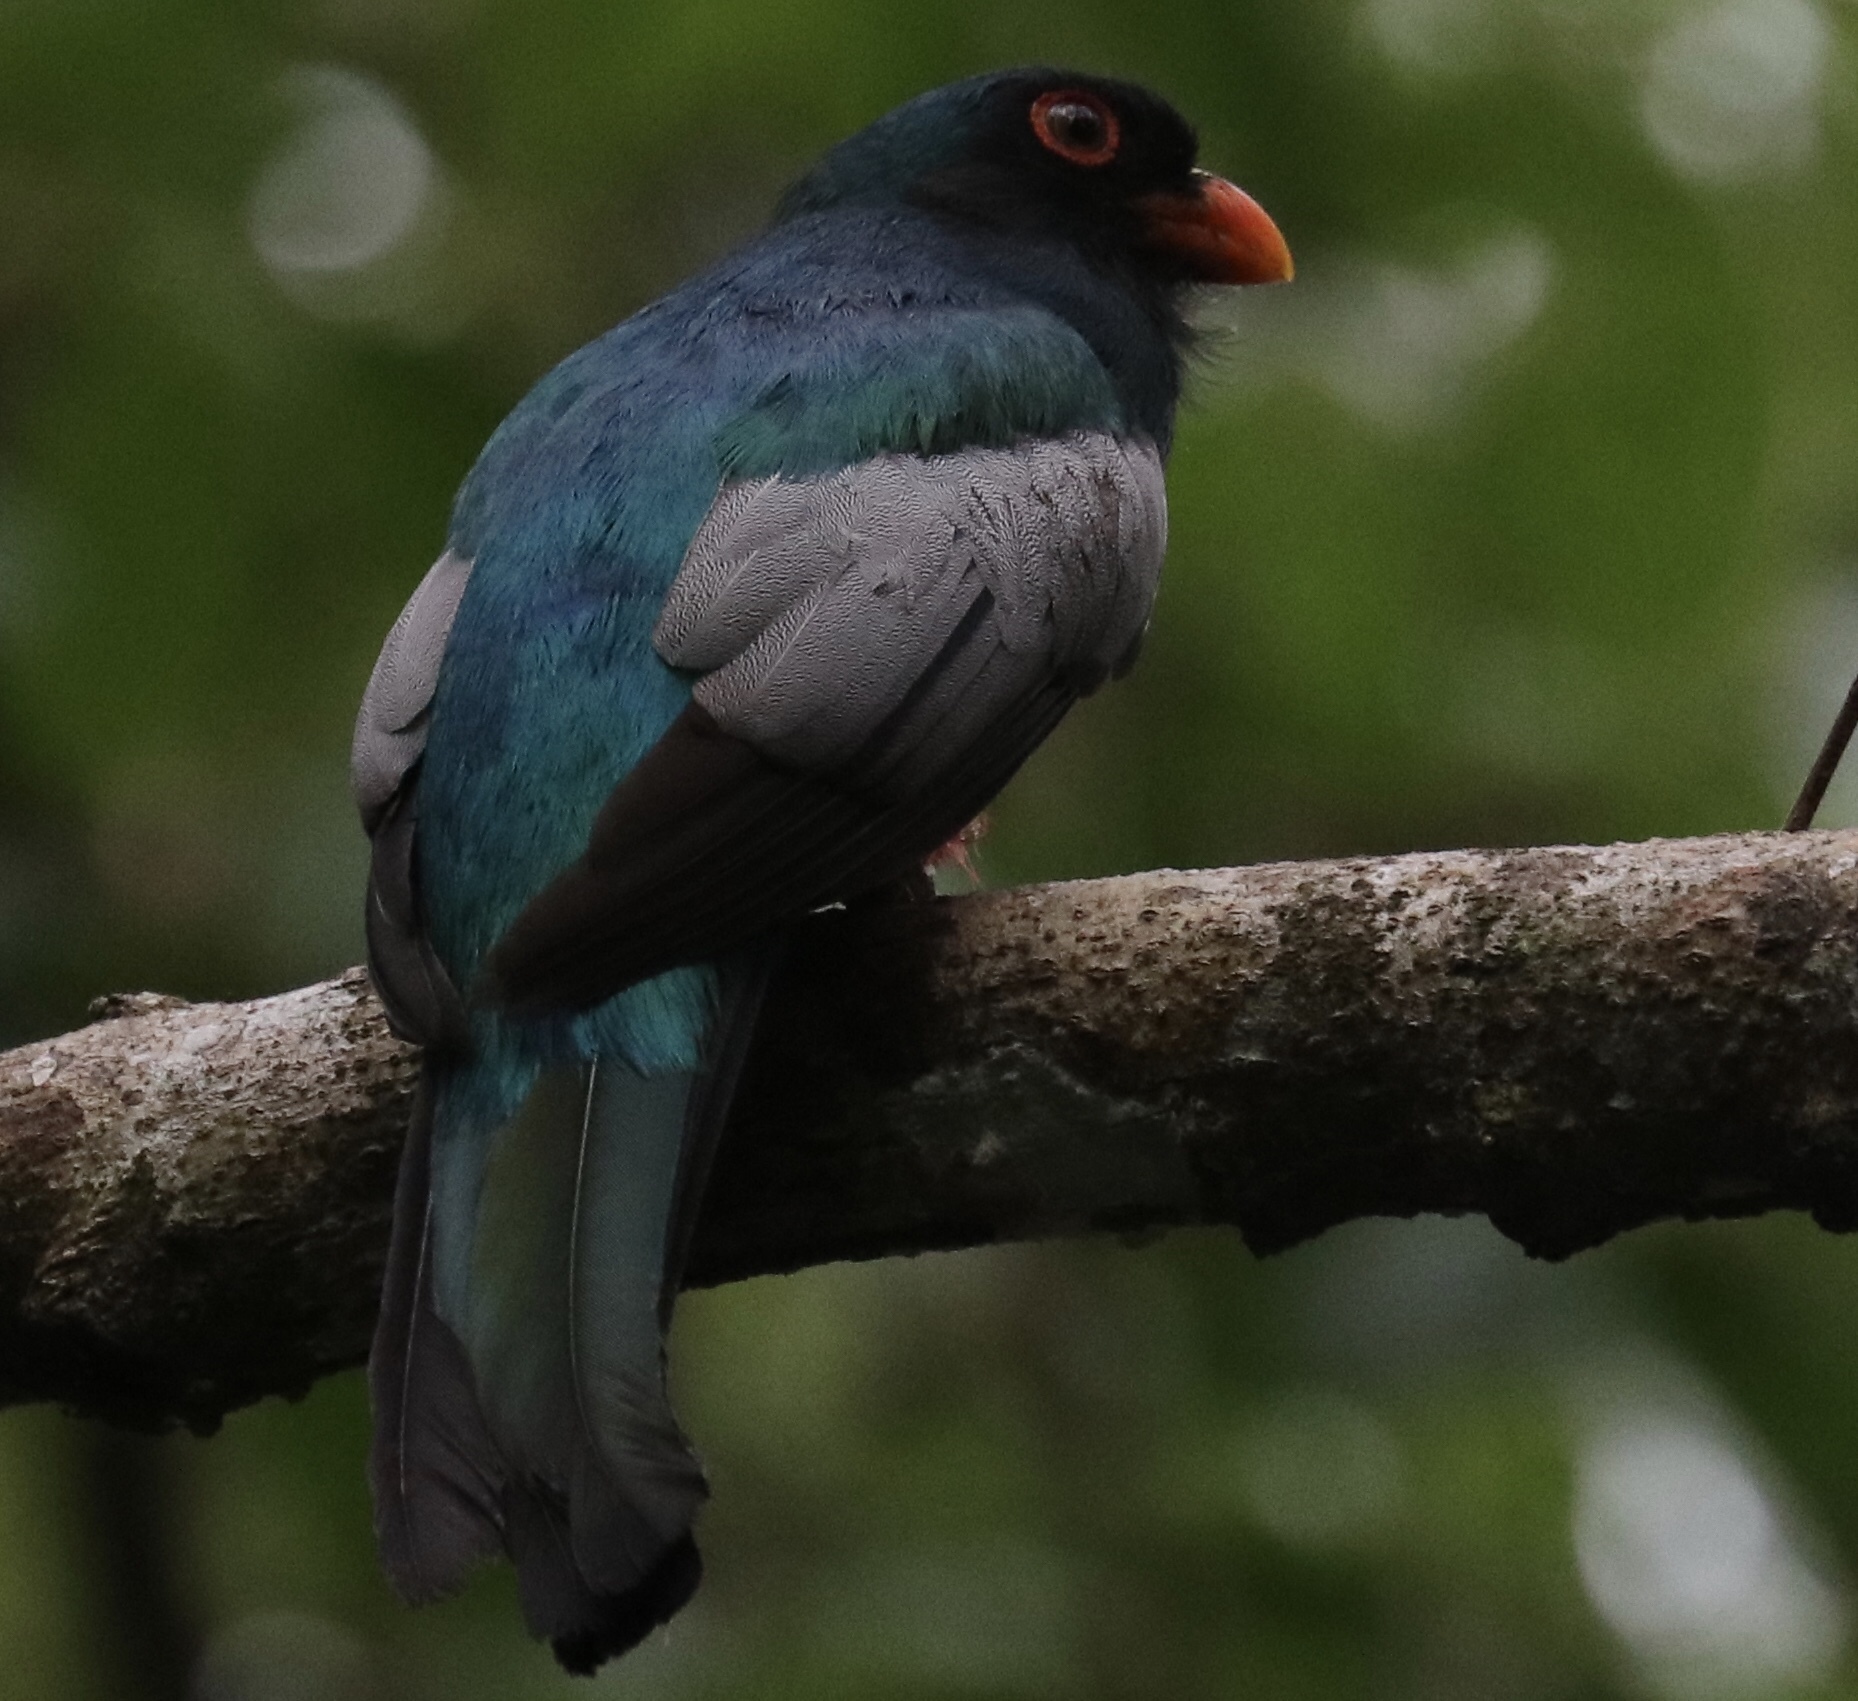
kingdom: Animalia
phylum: Chordata
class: Aves
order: Trogoniformes
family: Trogonidae
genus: Trogon
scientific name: Trogon massena
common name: Slaty-tailed trogon
